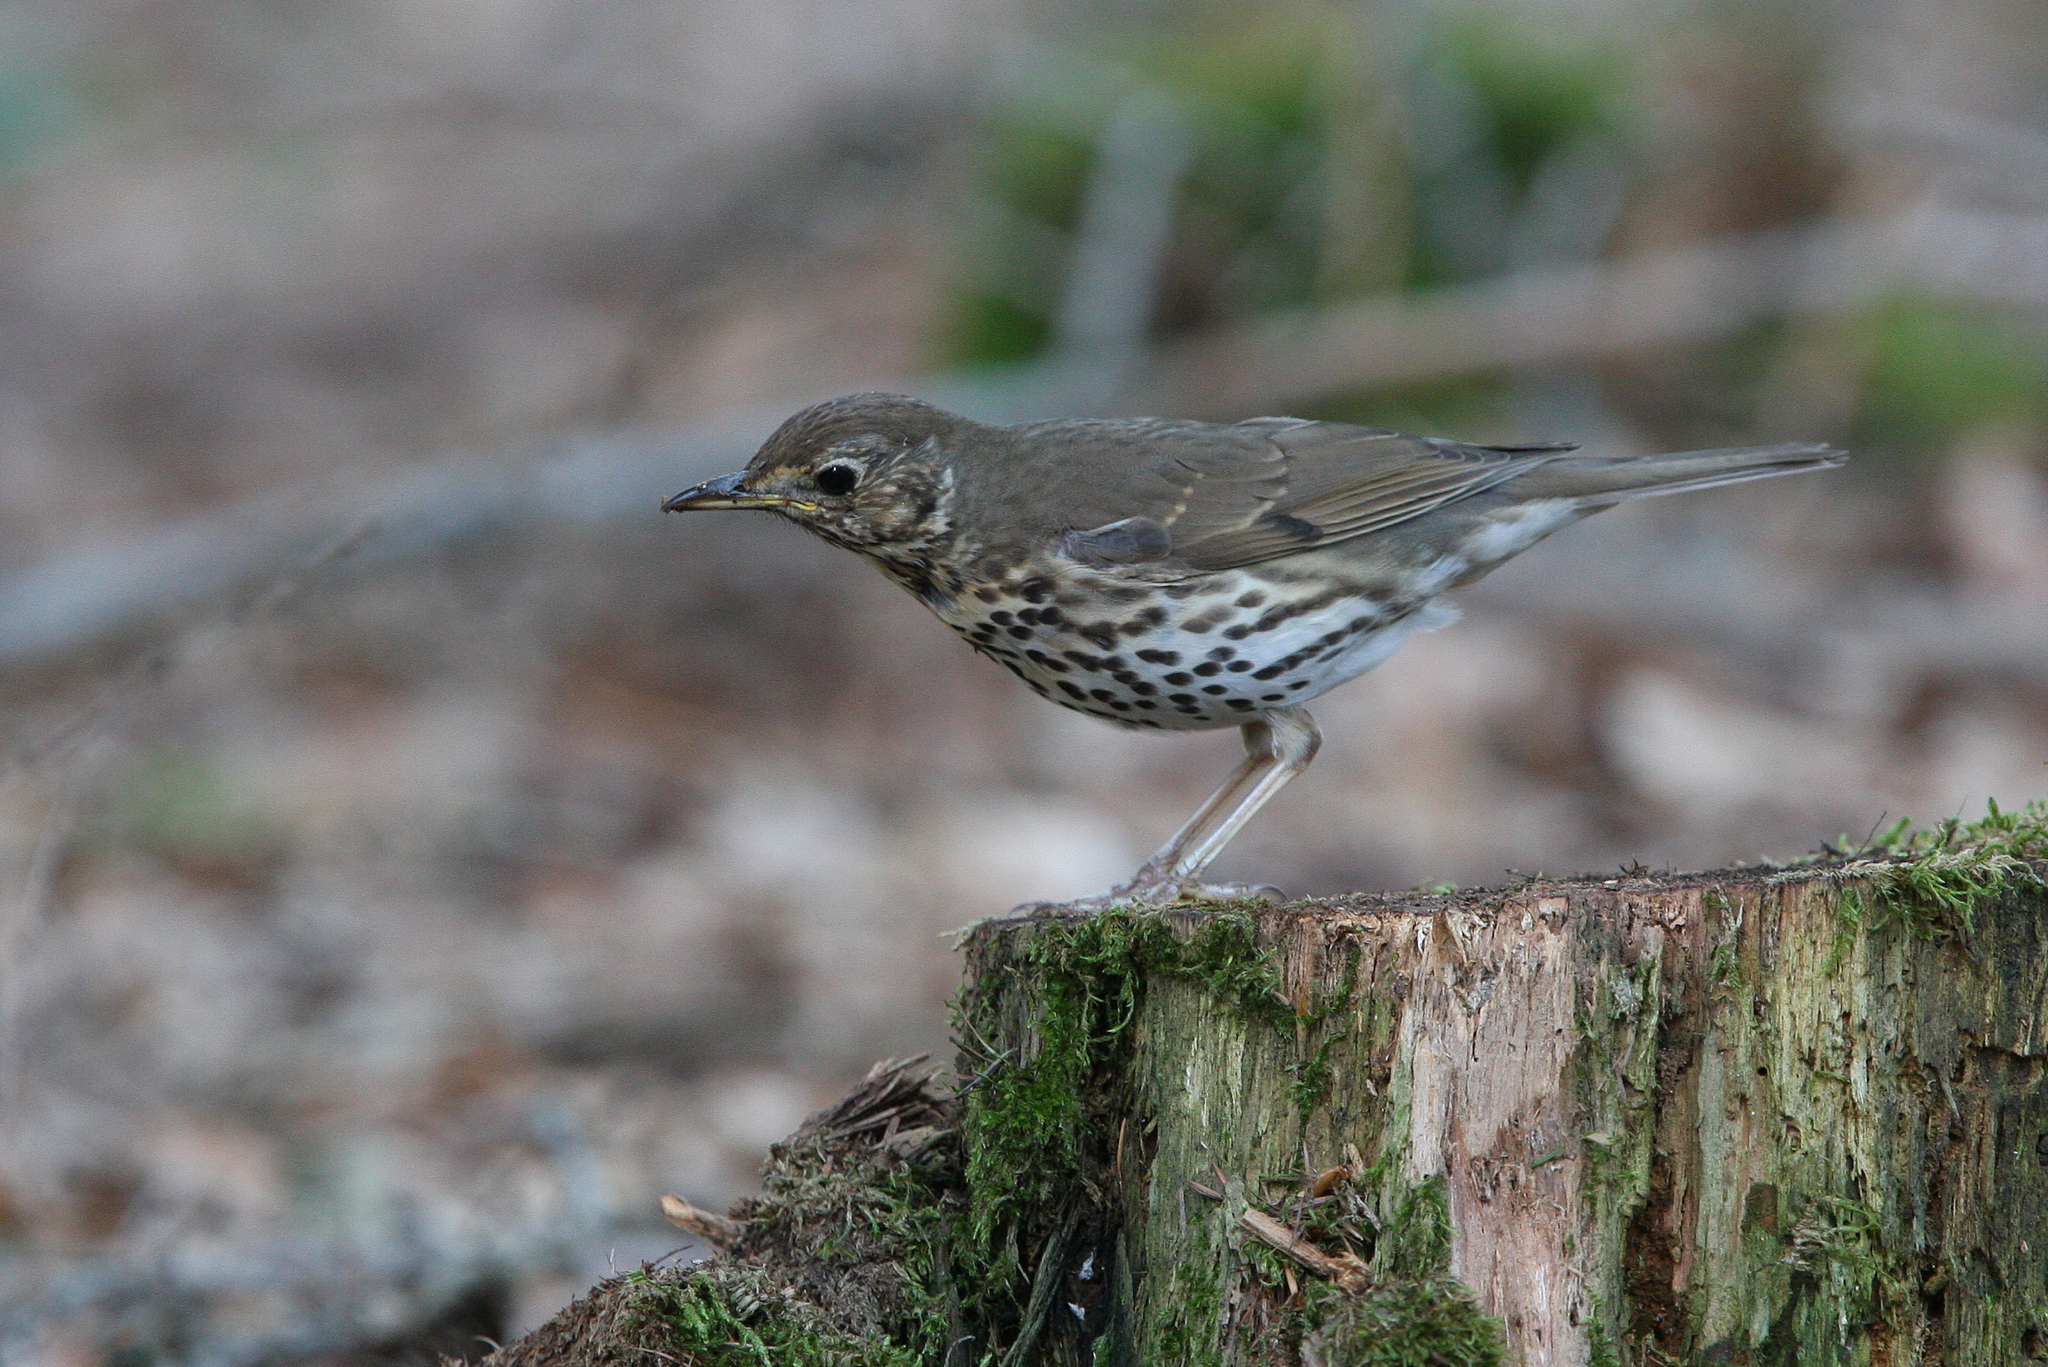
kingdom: Animalia
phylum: Chordata
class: Aves
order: Passeriformes
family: Turdidae
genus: Turdus
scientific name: Turdus philomelos
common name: Song thrush
